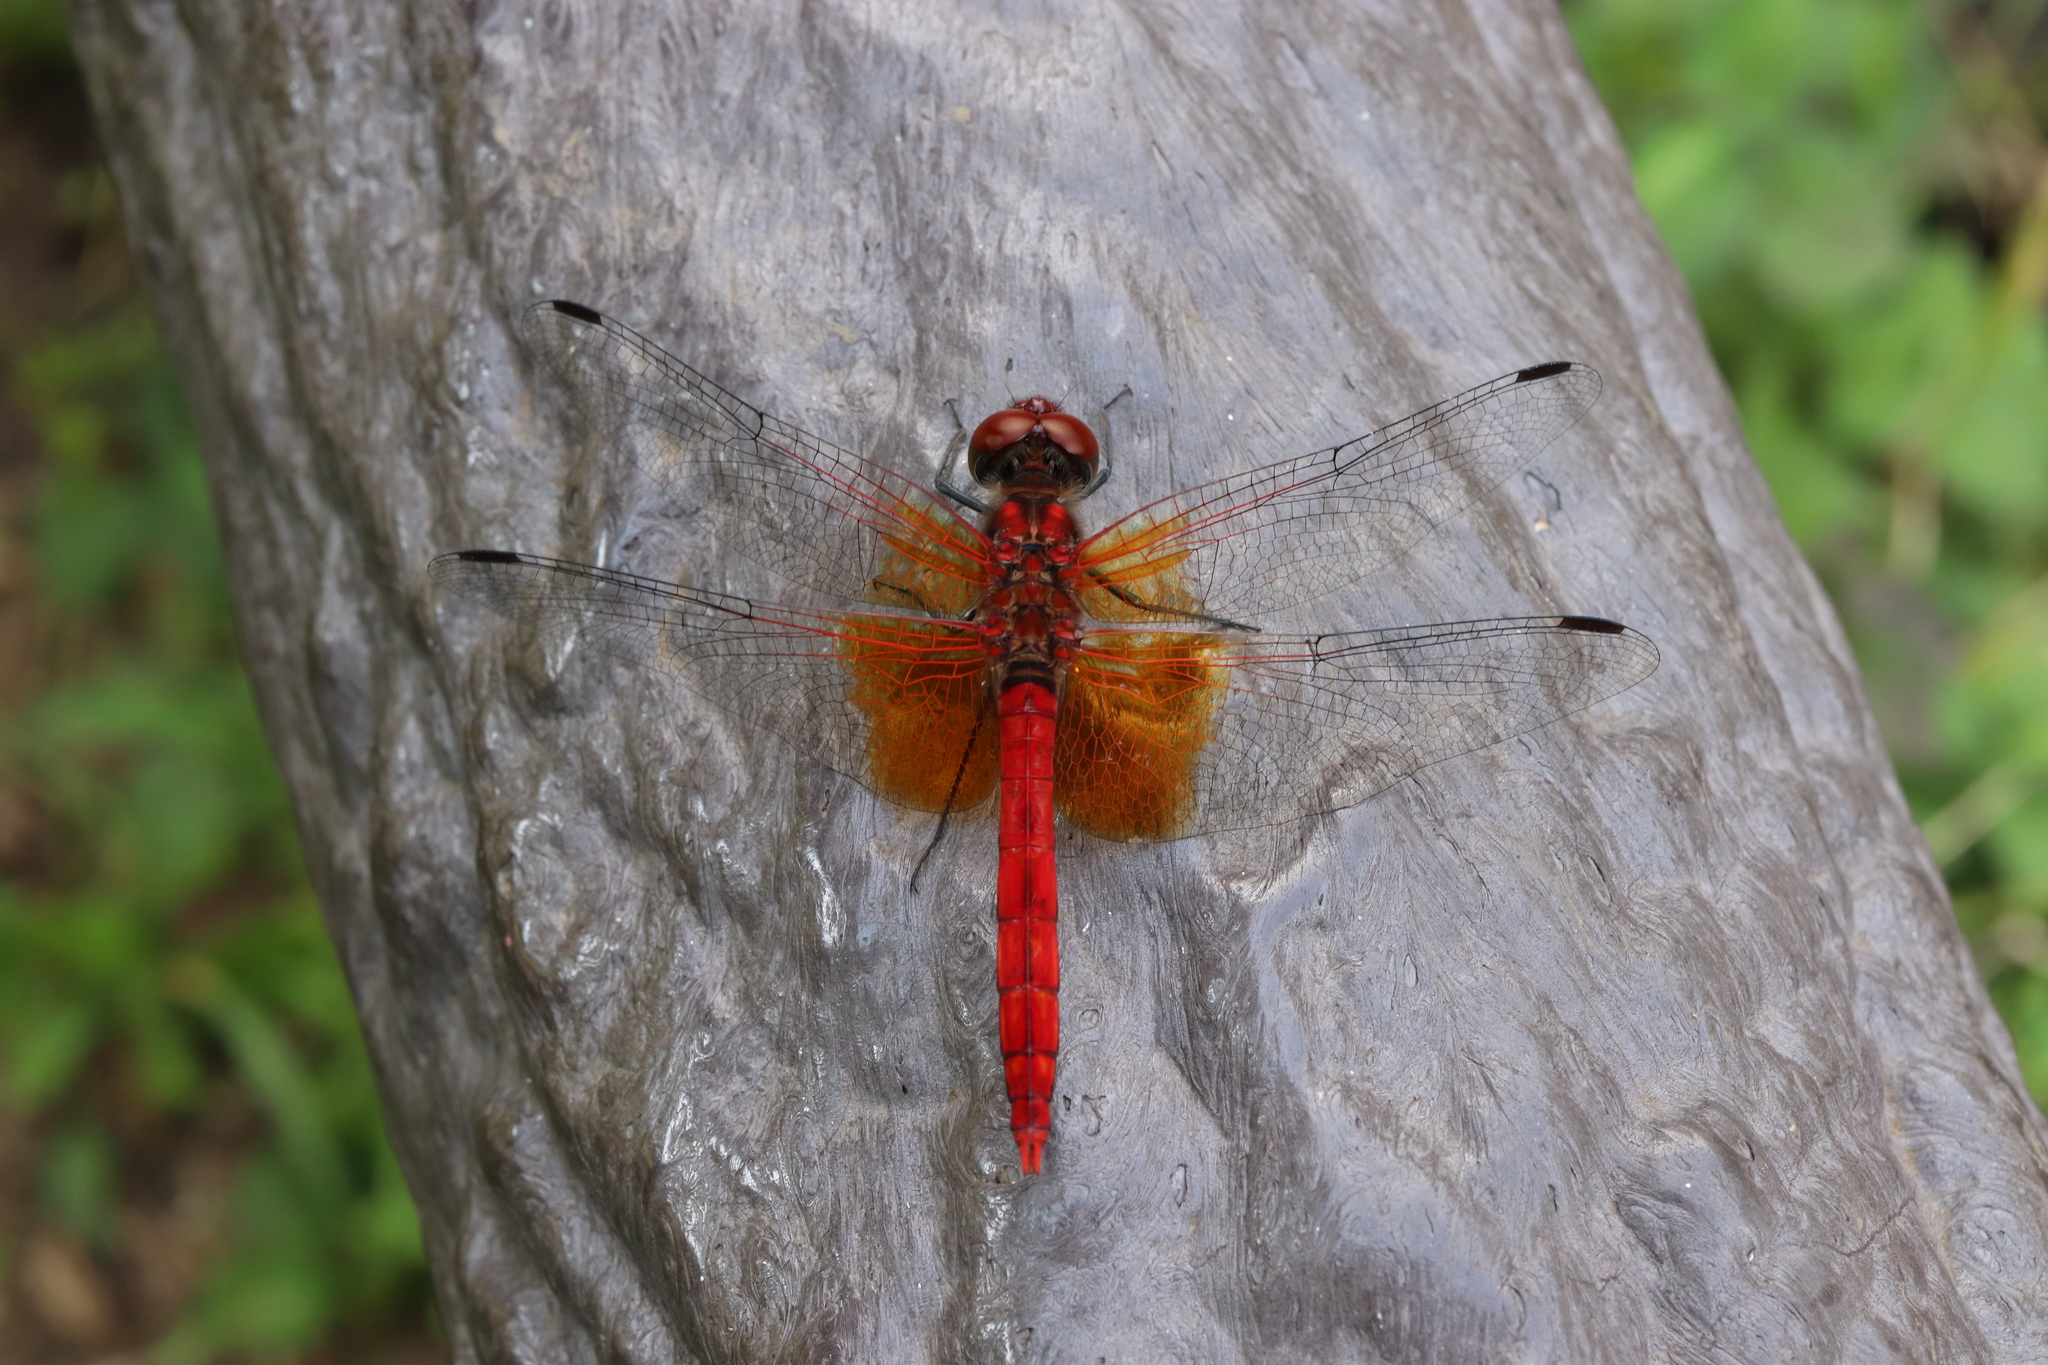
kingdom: Animalia
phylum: Arthropoda
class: Insecta
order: Odonata
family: Libellulidae
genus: Nannophya
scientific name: Nannophya pygmaea
